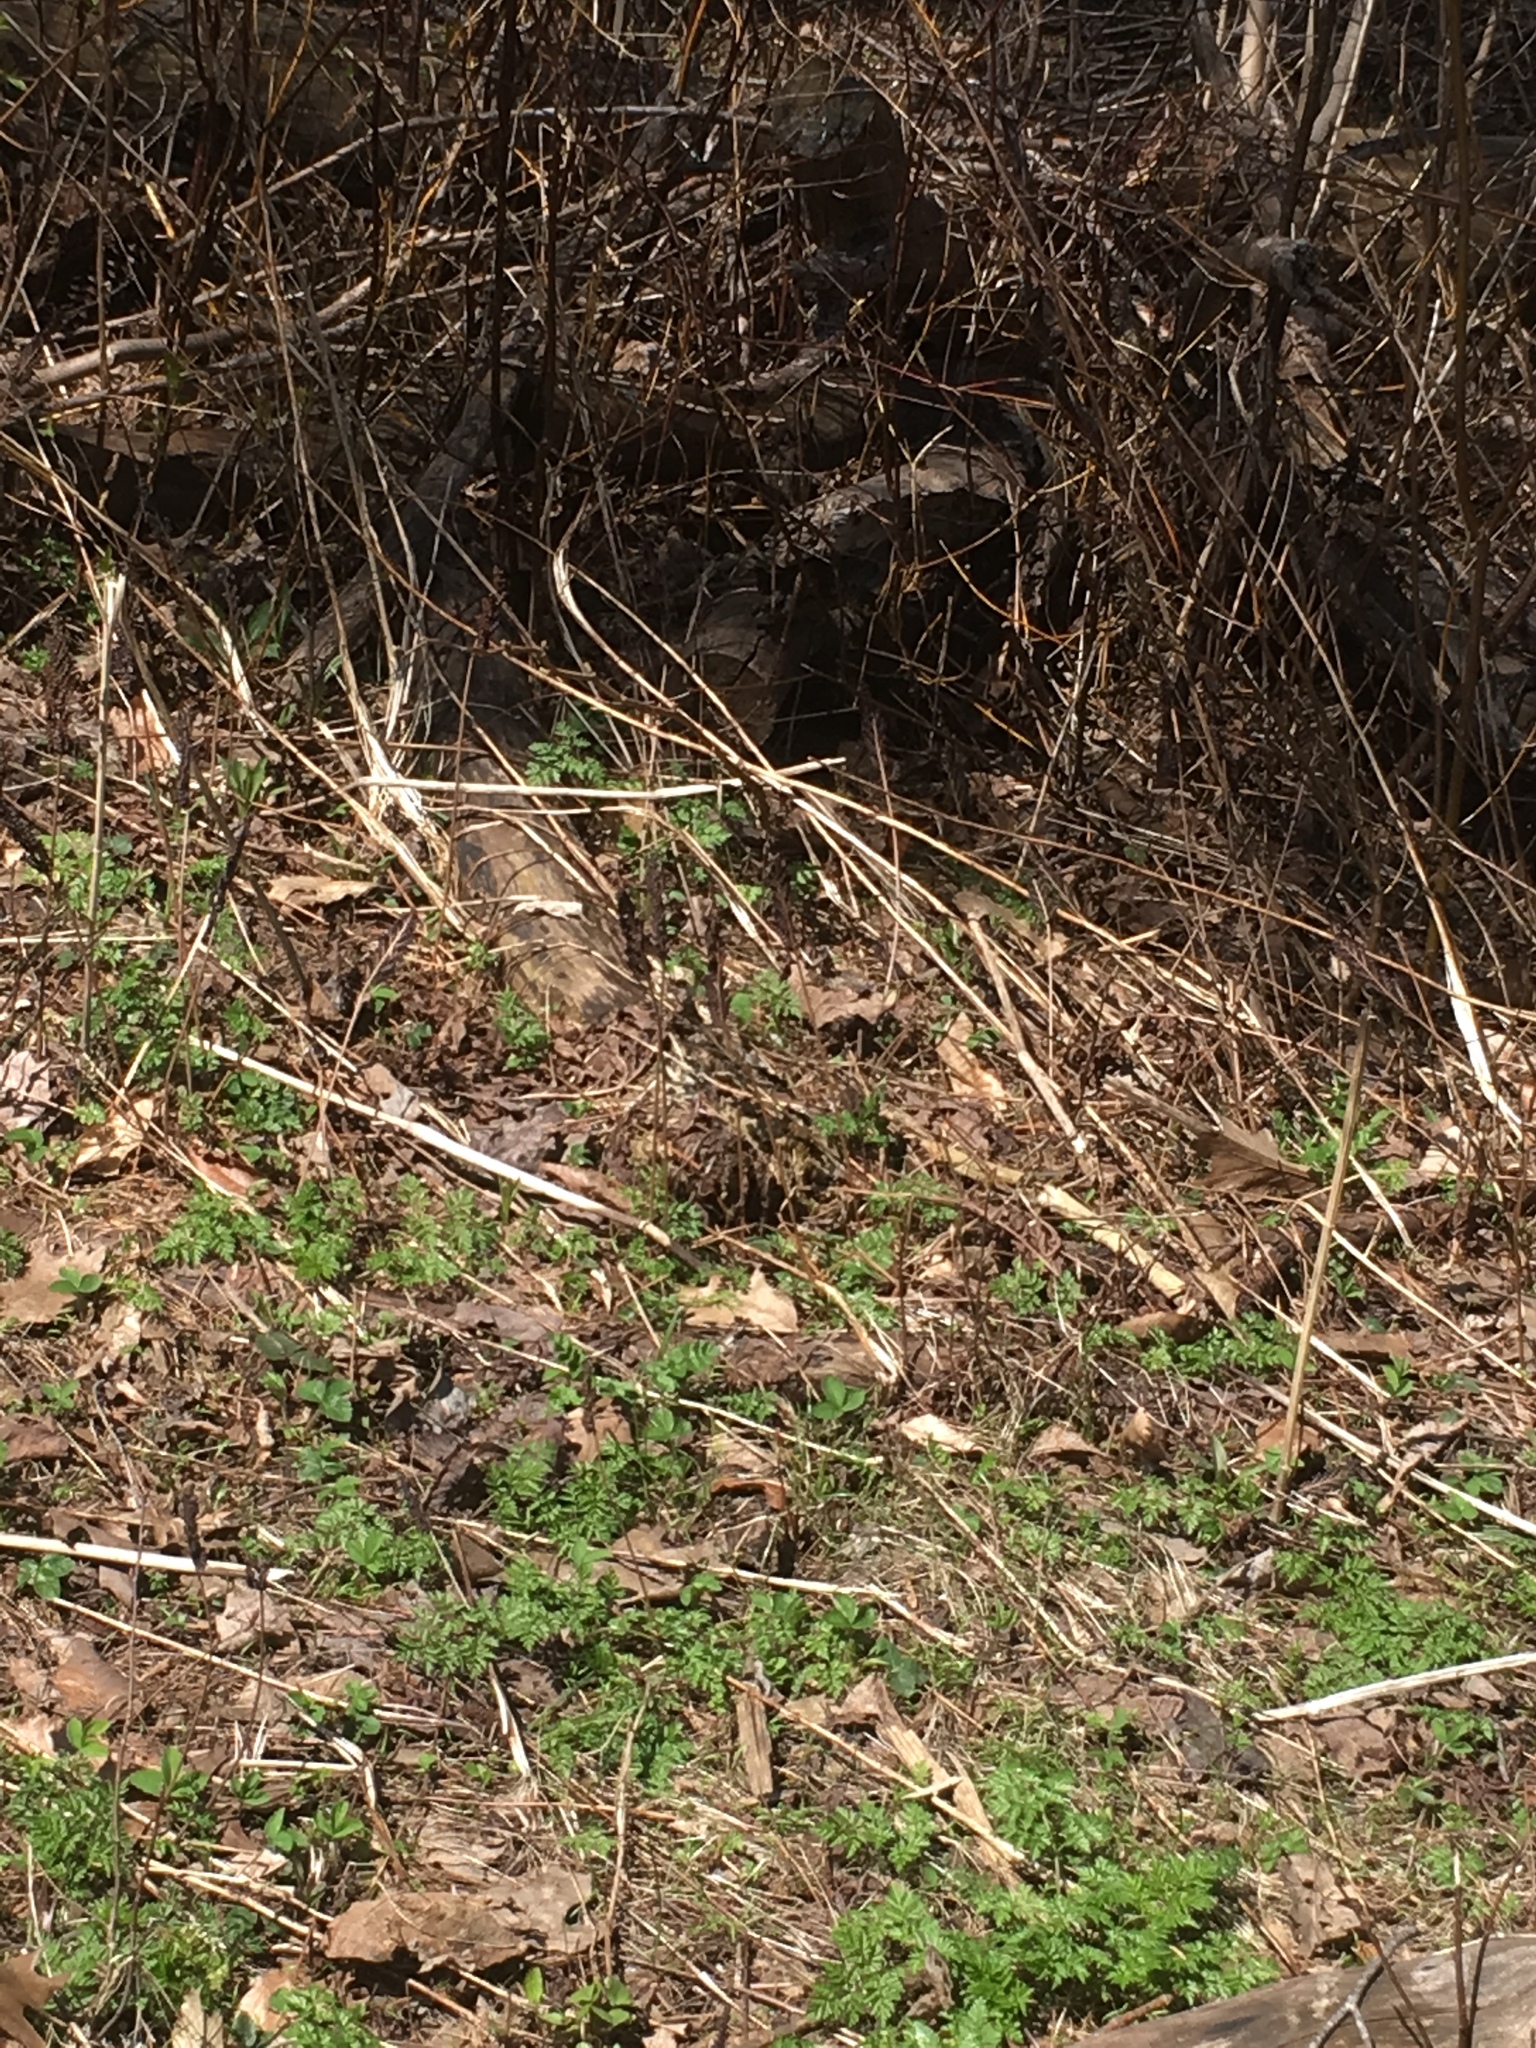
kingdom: Plantae
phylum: Tracheophyta
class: Polypodiopsida
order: Polypodiales
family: Onocleaceae
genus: Onoclea
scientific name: Onoclea sensibilis
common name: Sensitive fern
